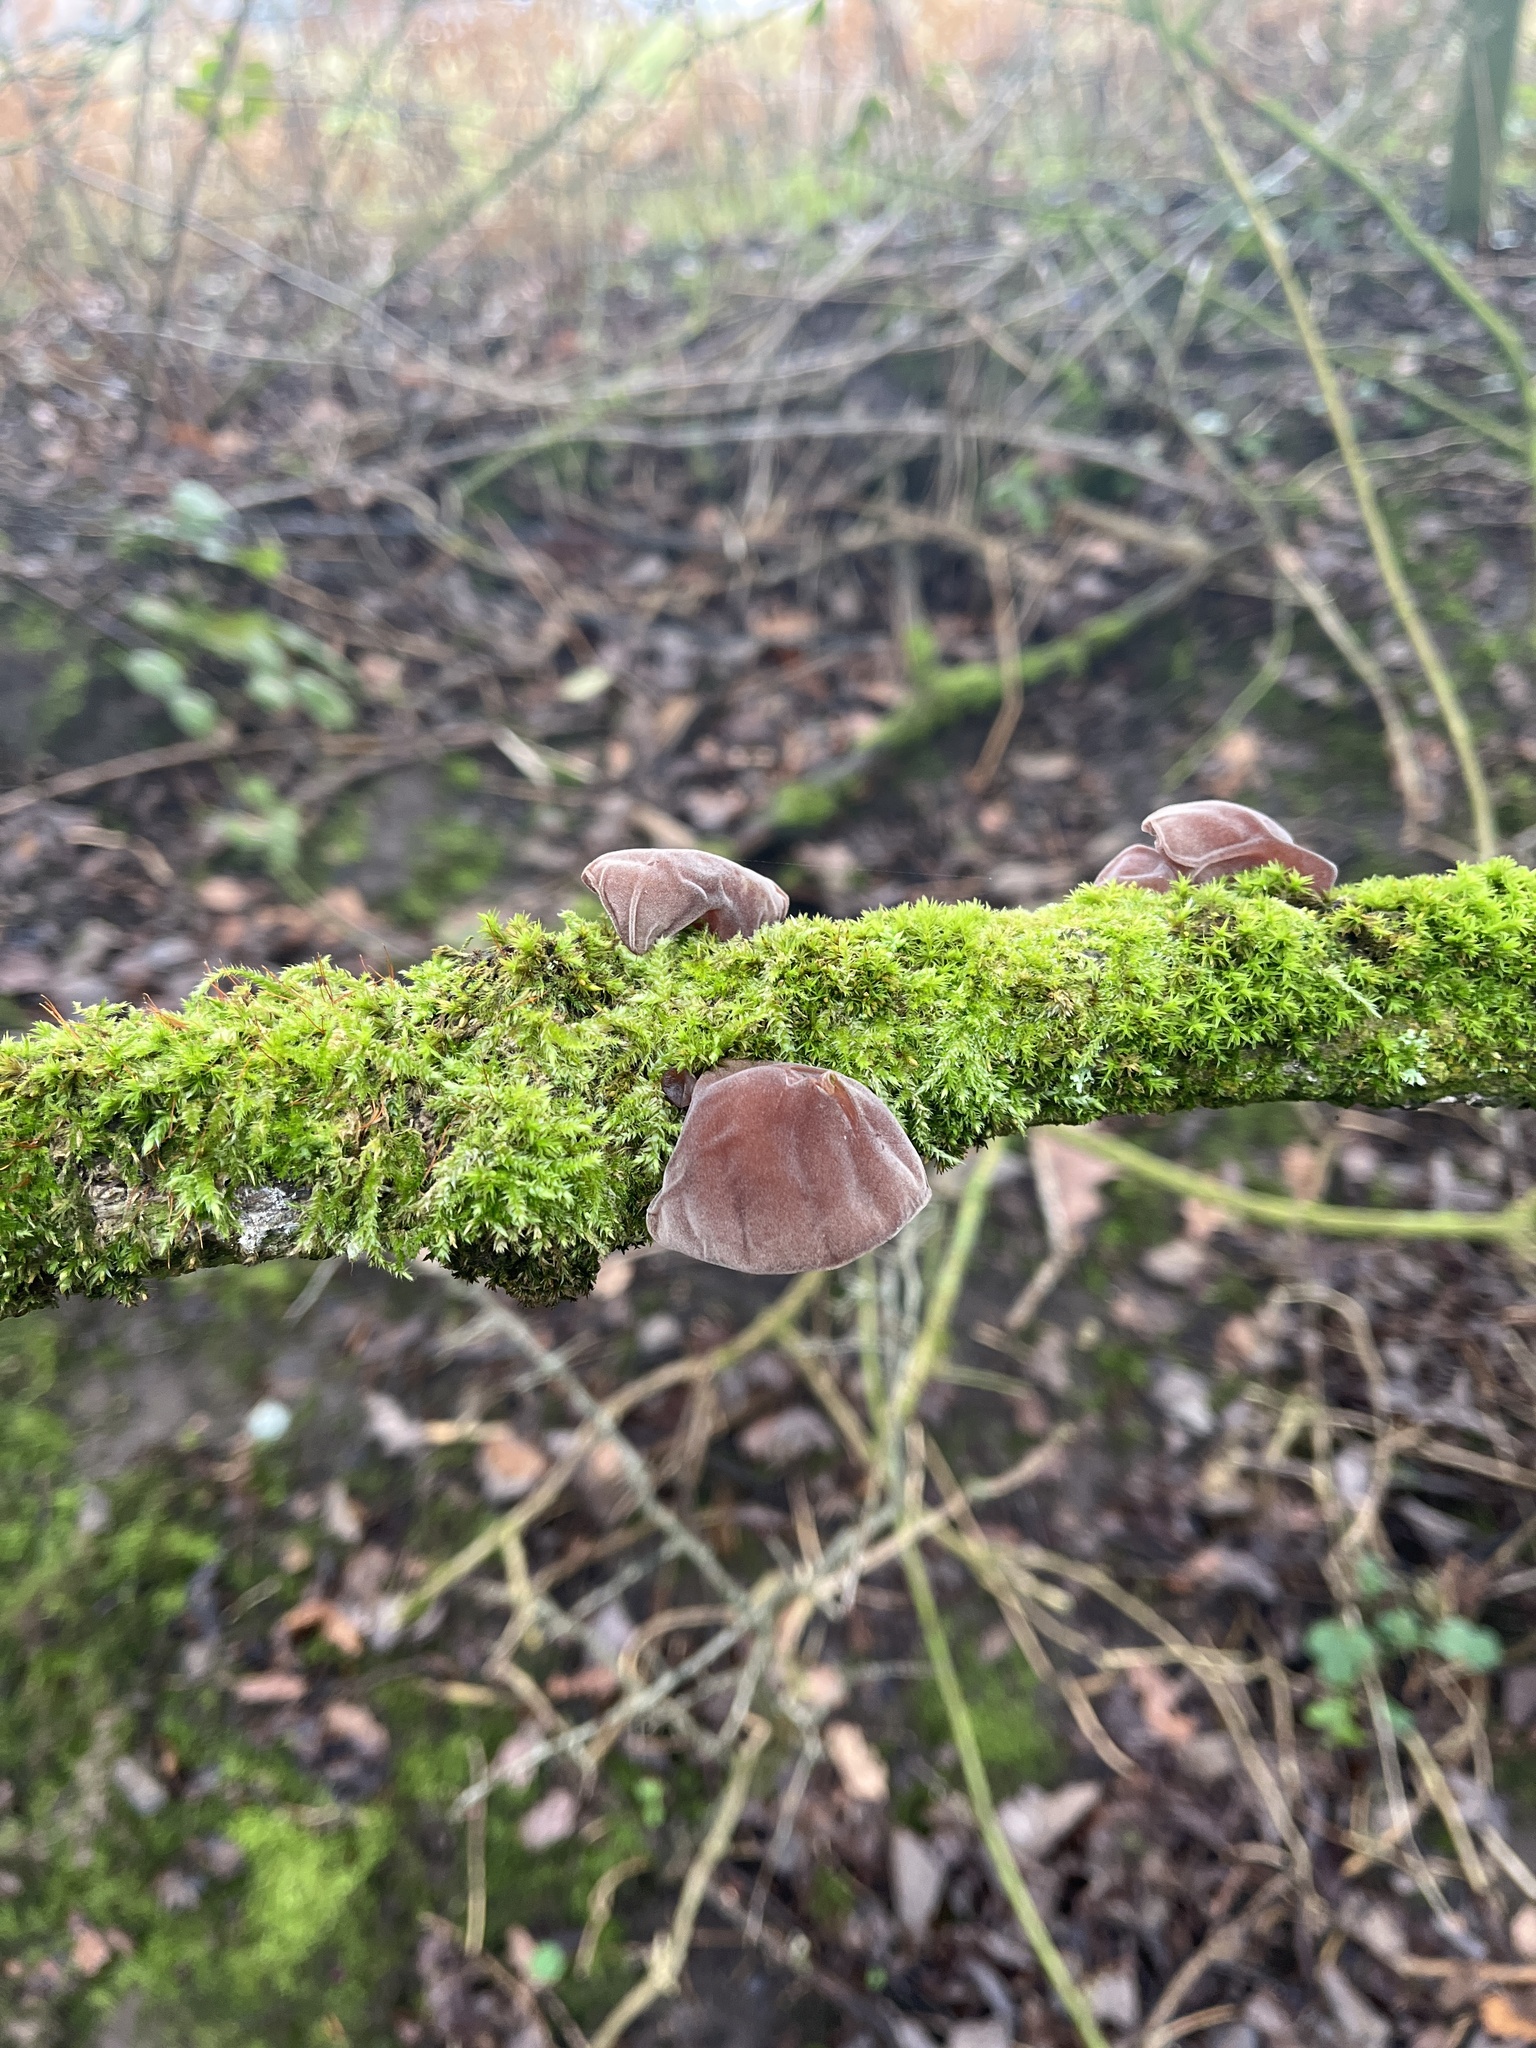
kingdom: Fungi
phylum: Basidiomycota
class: Agaricomycetes
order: Auriculariales
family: Auriculariaceae
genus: Auricularia
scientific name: Auricularia auricula-judae
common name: Jelly ear
